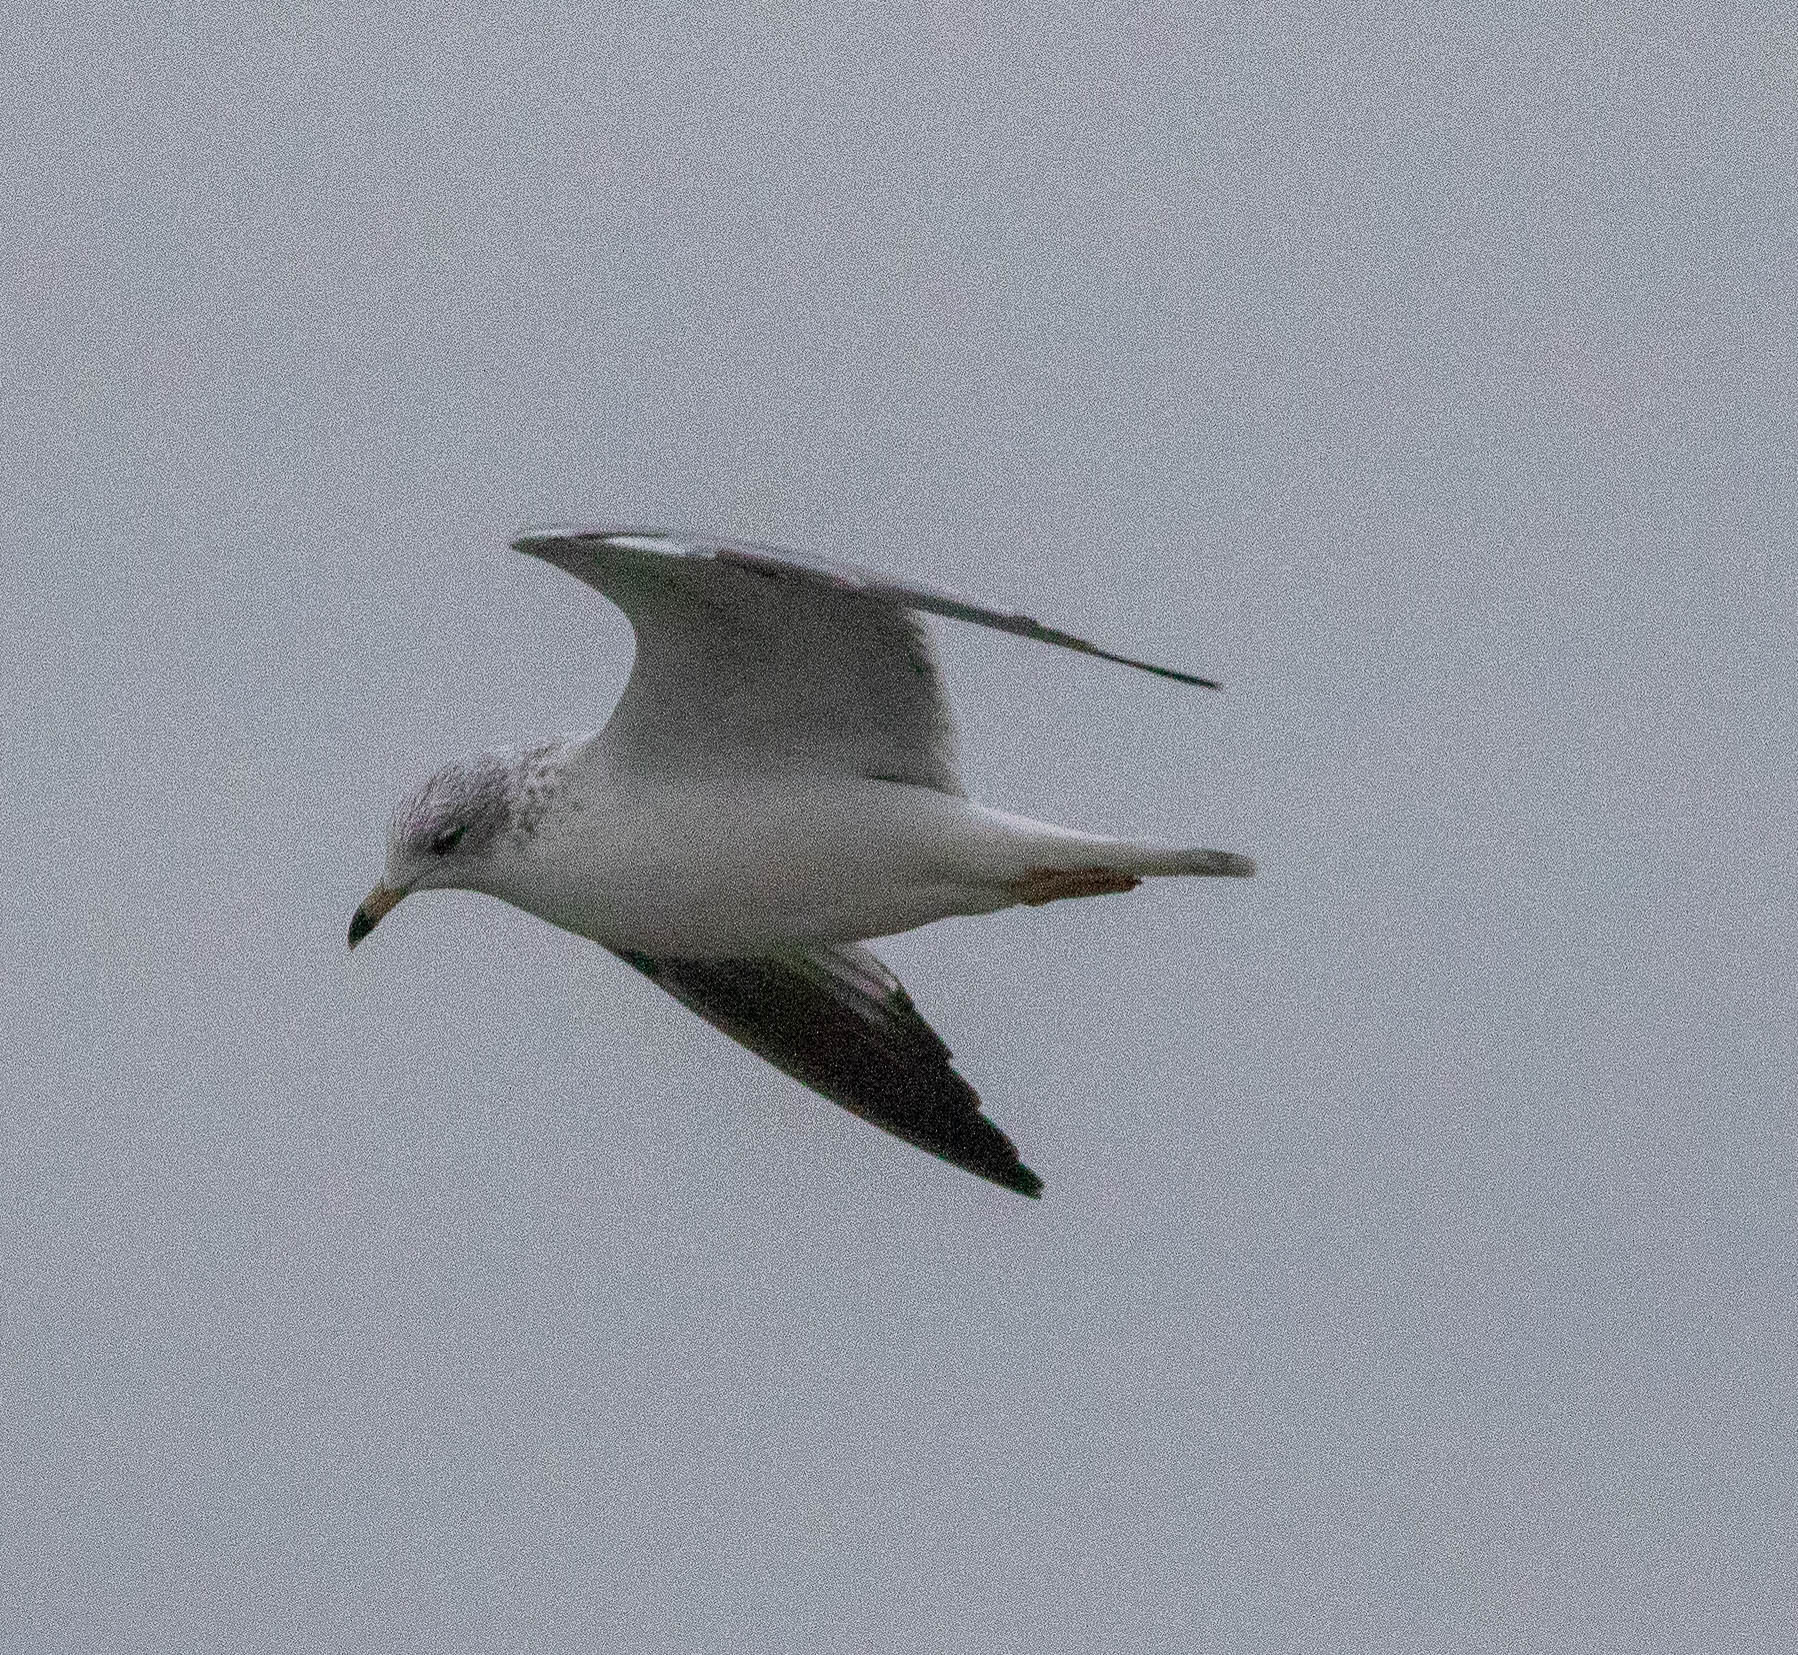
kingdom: Animalia
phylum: Chordata
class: Aves
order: Charadriiformes
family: Laridae
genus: Larus
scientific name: Larus delawarensis
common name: Ring-billed gull
